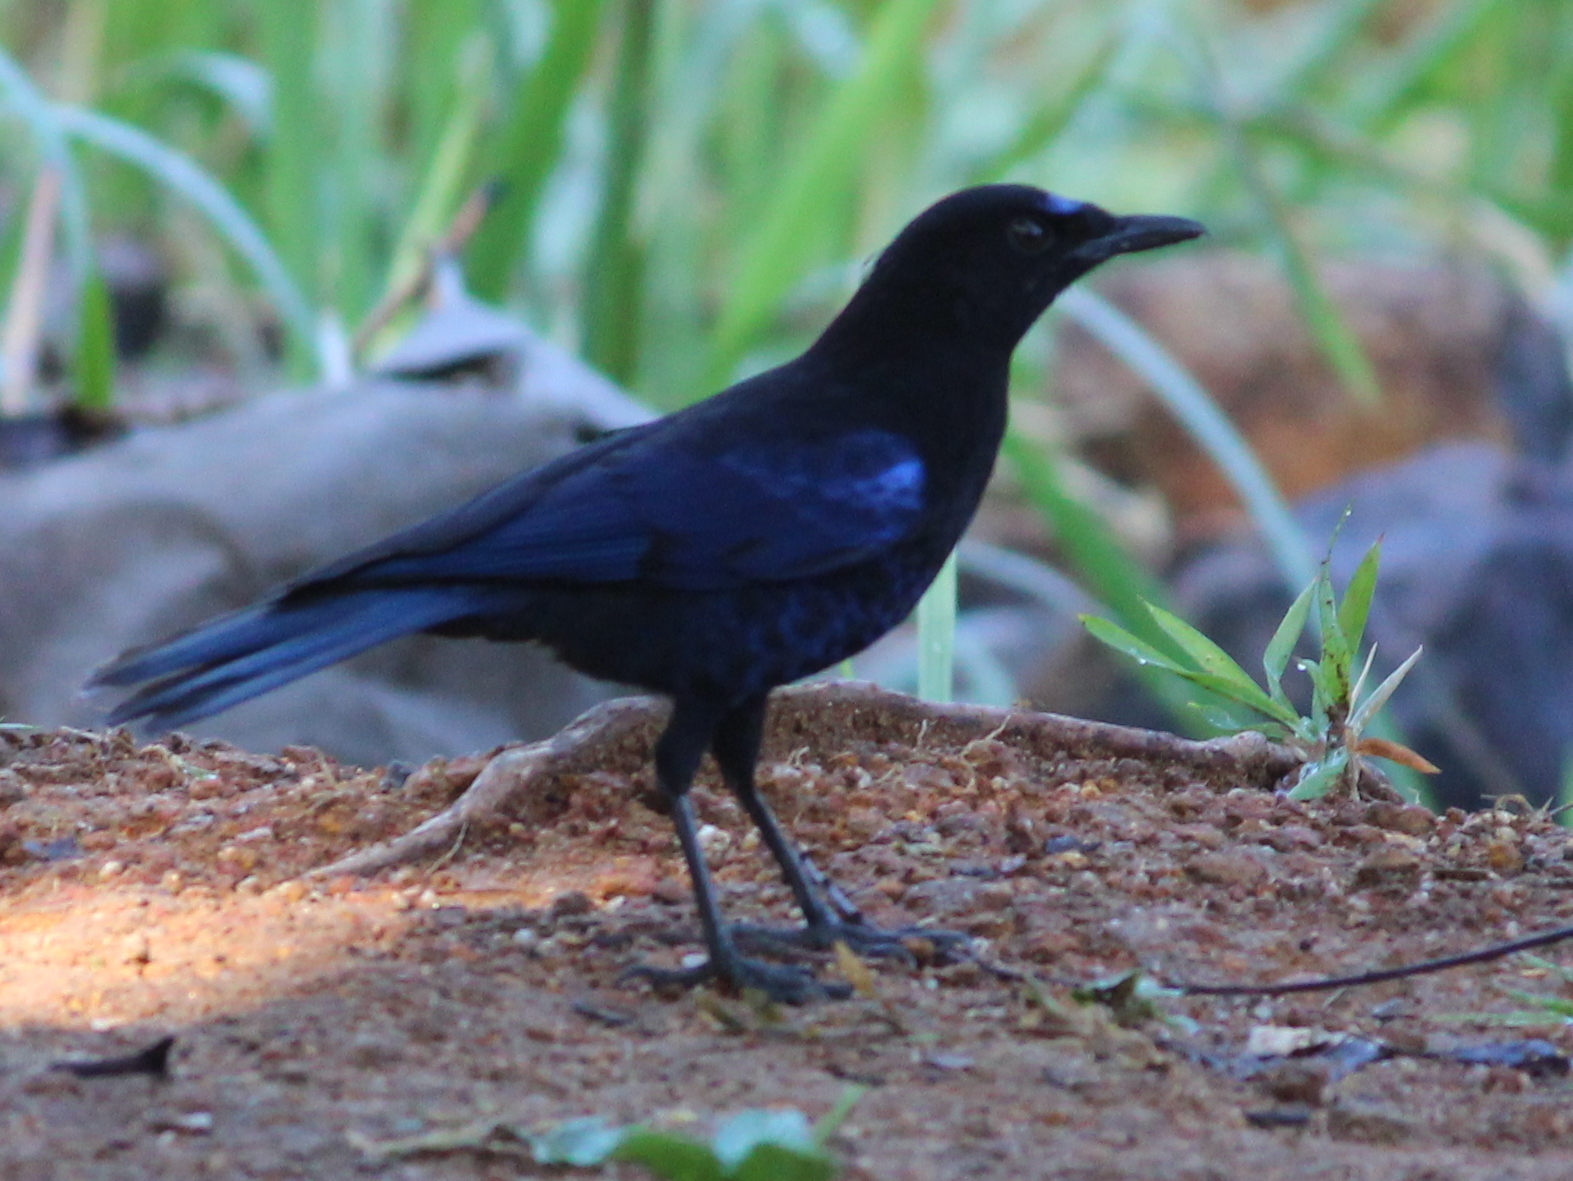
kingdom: Animalia
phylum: Chordata
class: Aves
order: Passeriformes
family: Muscicapidae
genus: Myophonus
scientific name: Myophonus horsfieldii
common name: Malabar whistling-thrush
